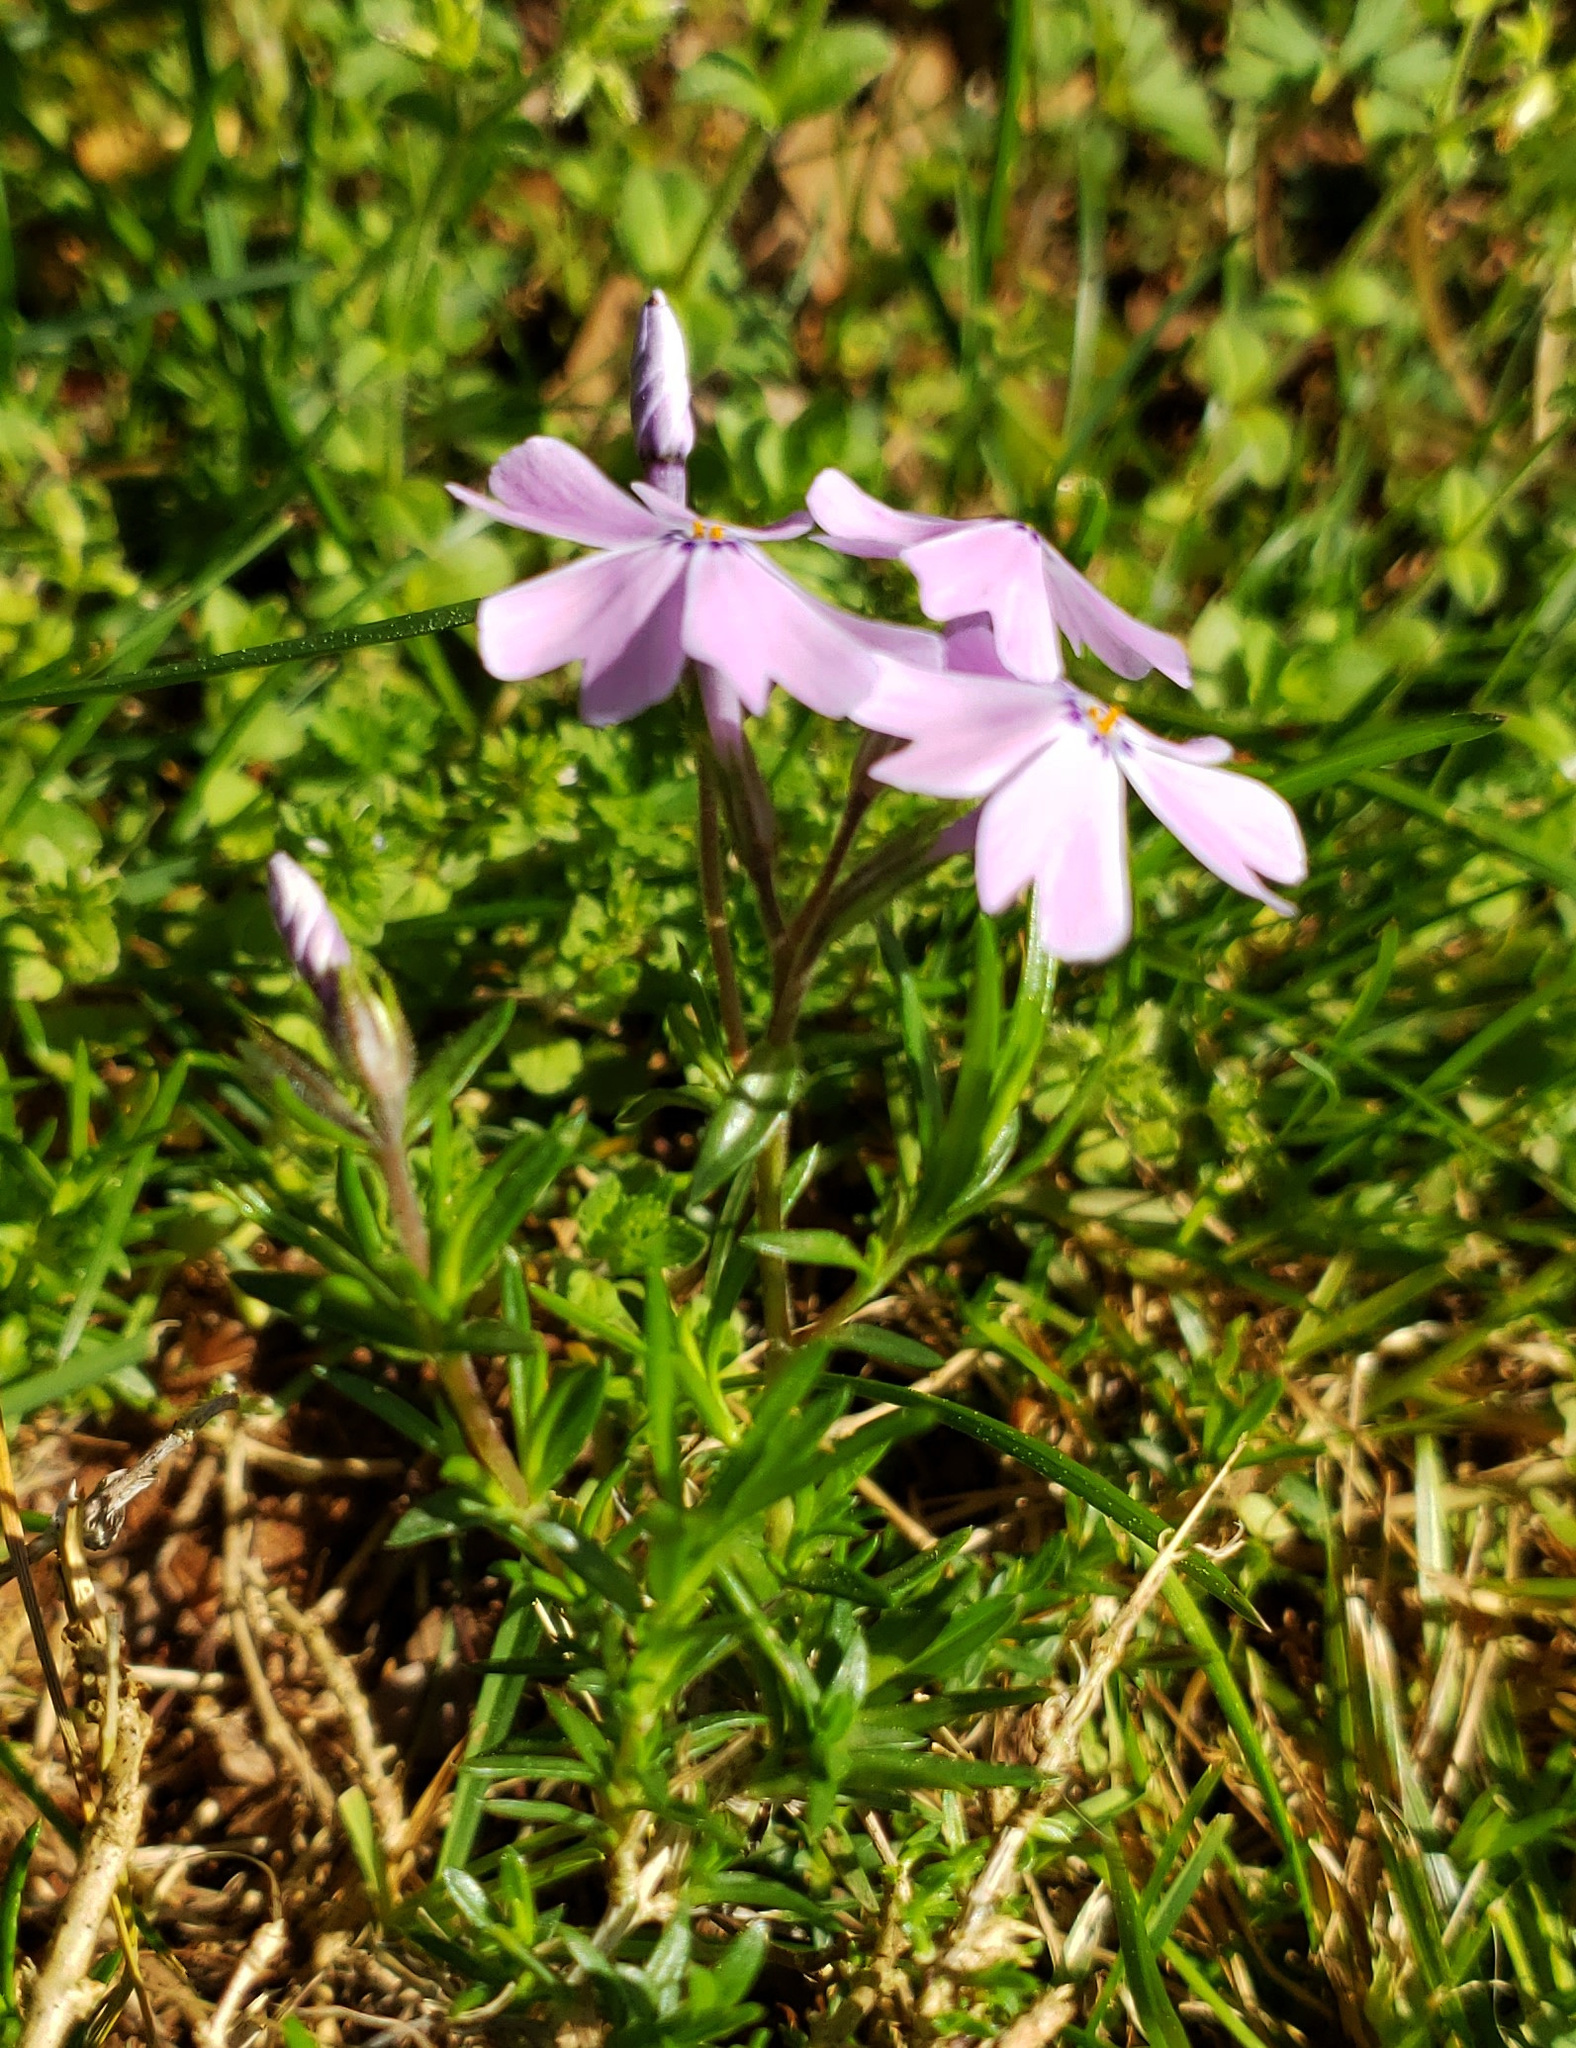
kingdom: Plantae
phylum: Tracheophyta
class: Magnoliopsida
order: Ericales
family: Polemoniaceae
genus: Phlox
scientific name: Phlox subulata
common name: Moss phlox
